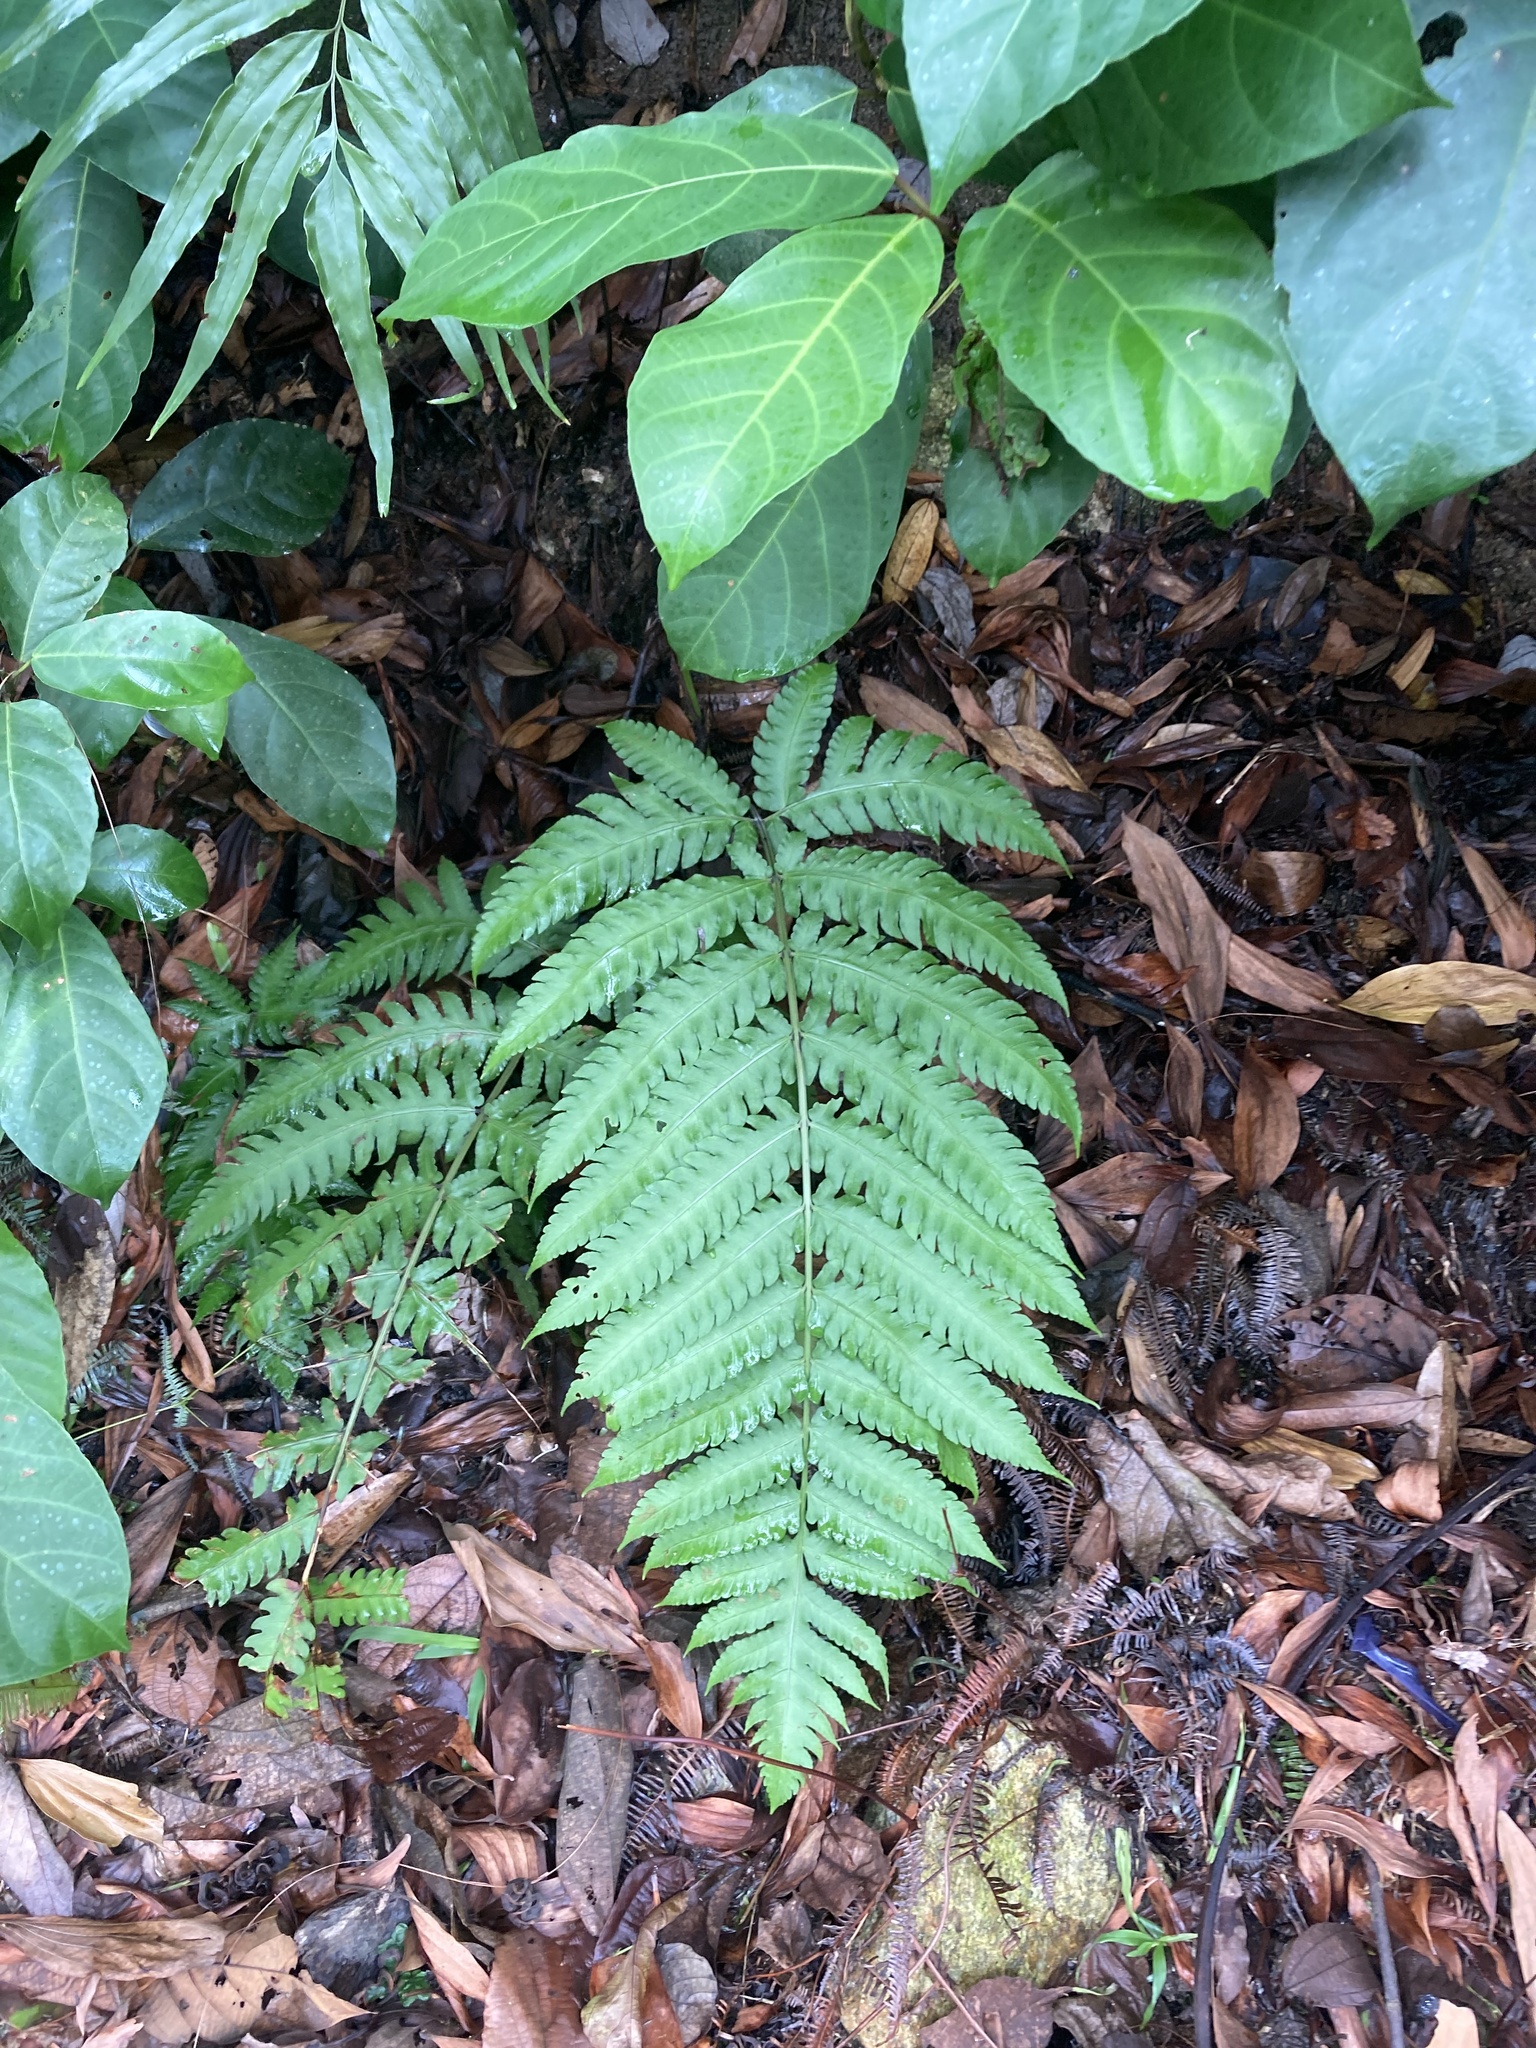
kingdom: Plantae
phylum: Tracheophyta
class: Polypodiopsida
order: Polypodiales
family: Dryopteridaceae
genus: Pleocnemia
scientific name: Pleocnemia irregularis
